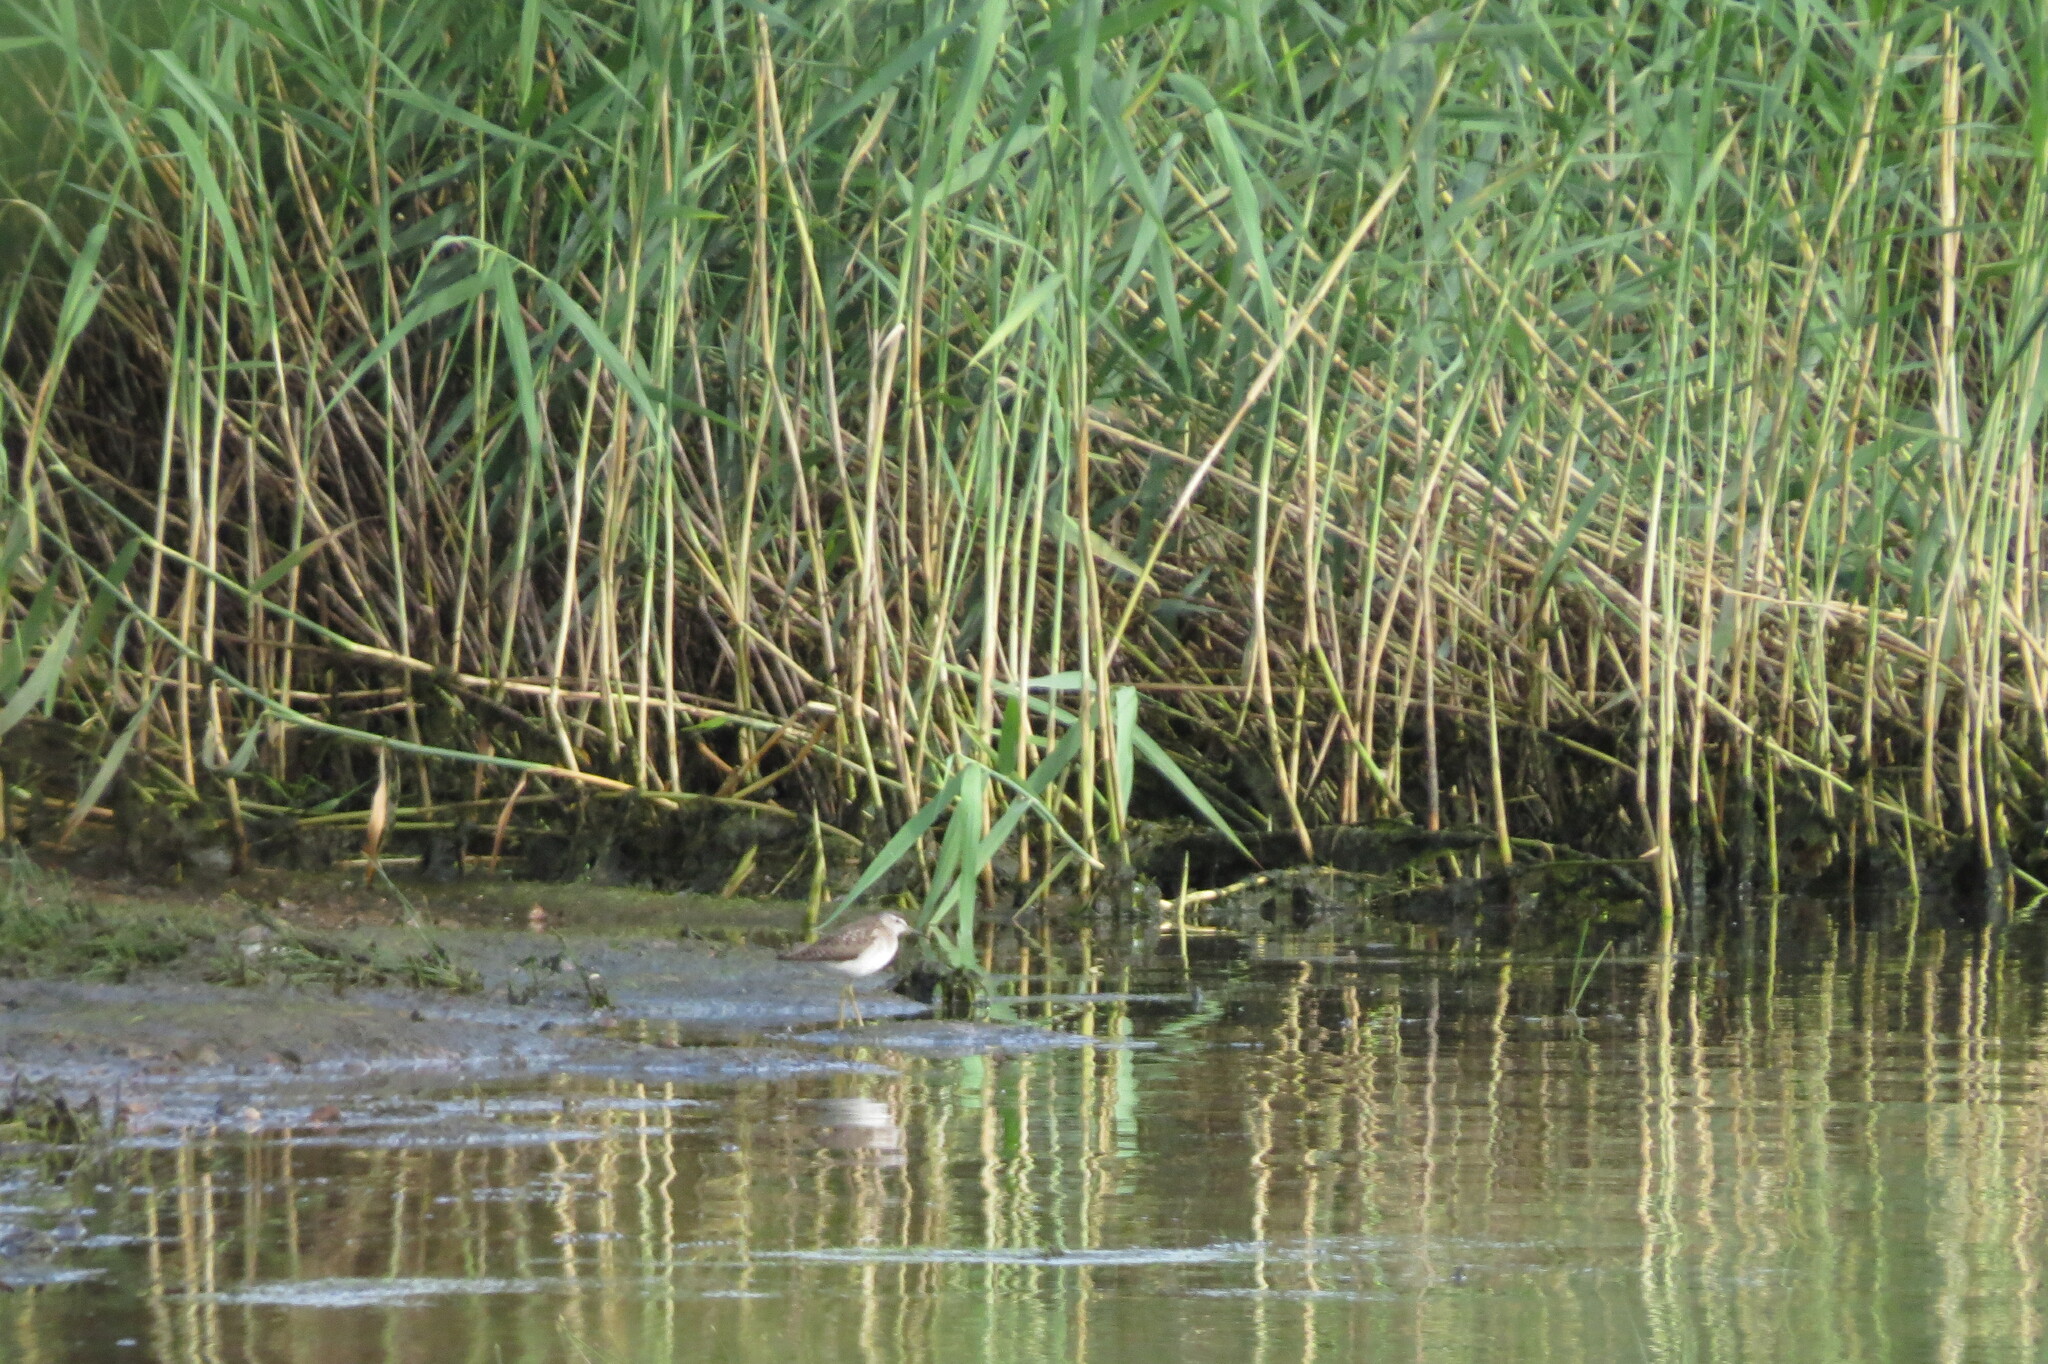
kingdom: Animalia
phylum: Chordata
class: Aves
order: Charadriiformes
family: Scolopacidae
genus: Tringa
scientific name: Tringa glareola
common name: Wood sandpiper
